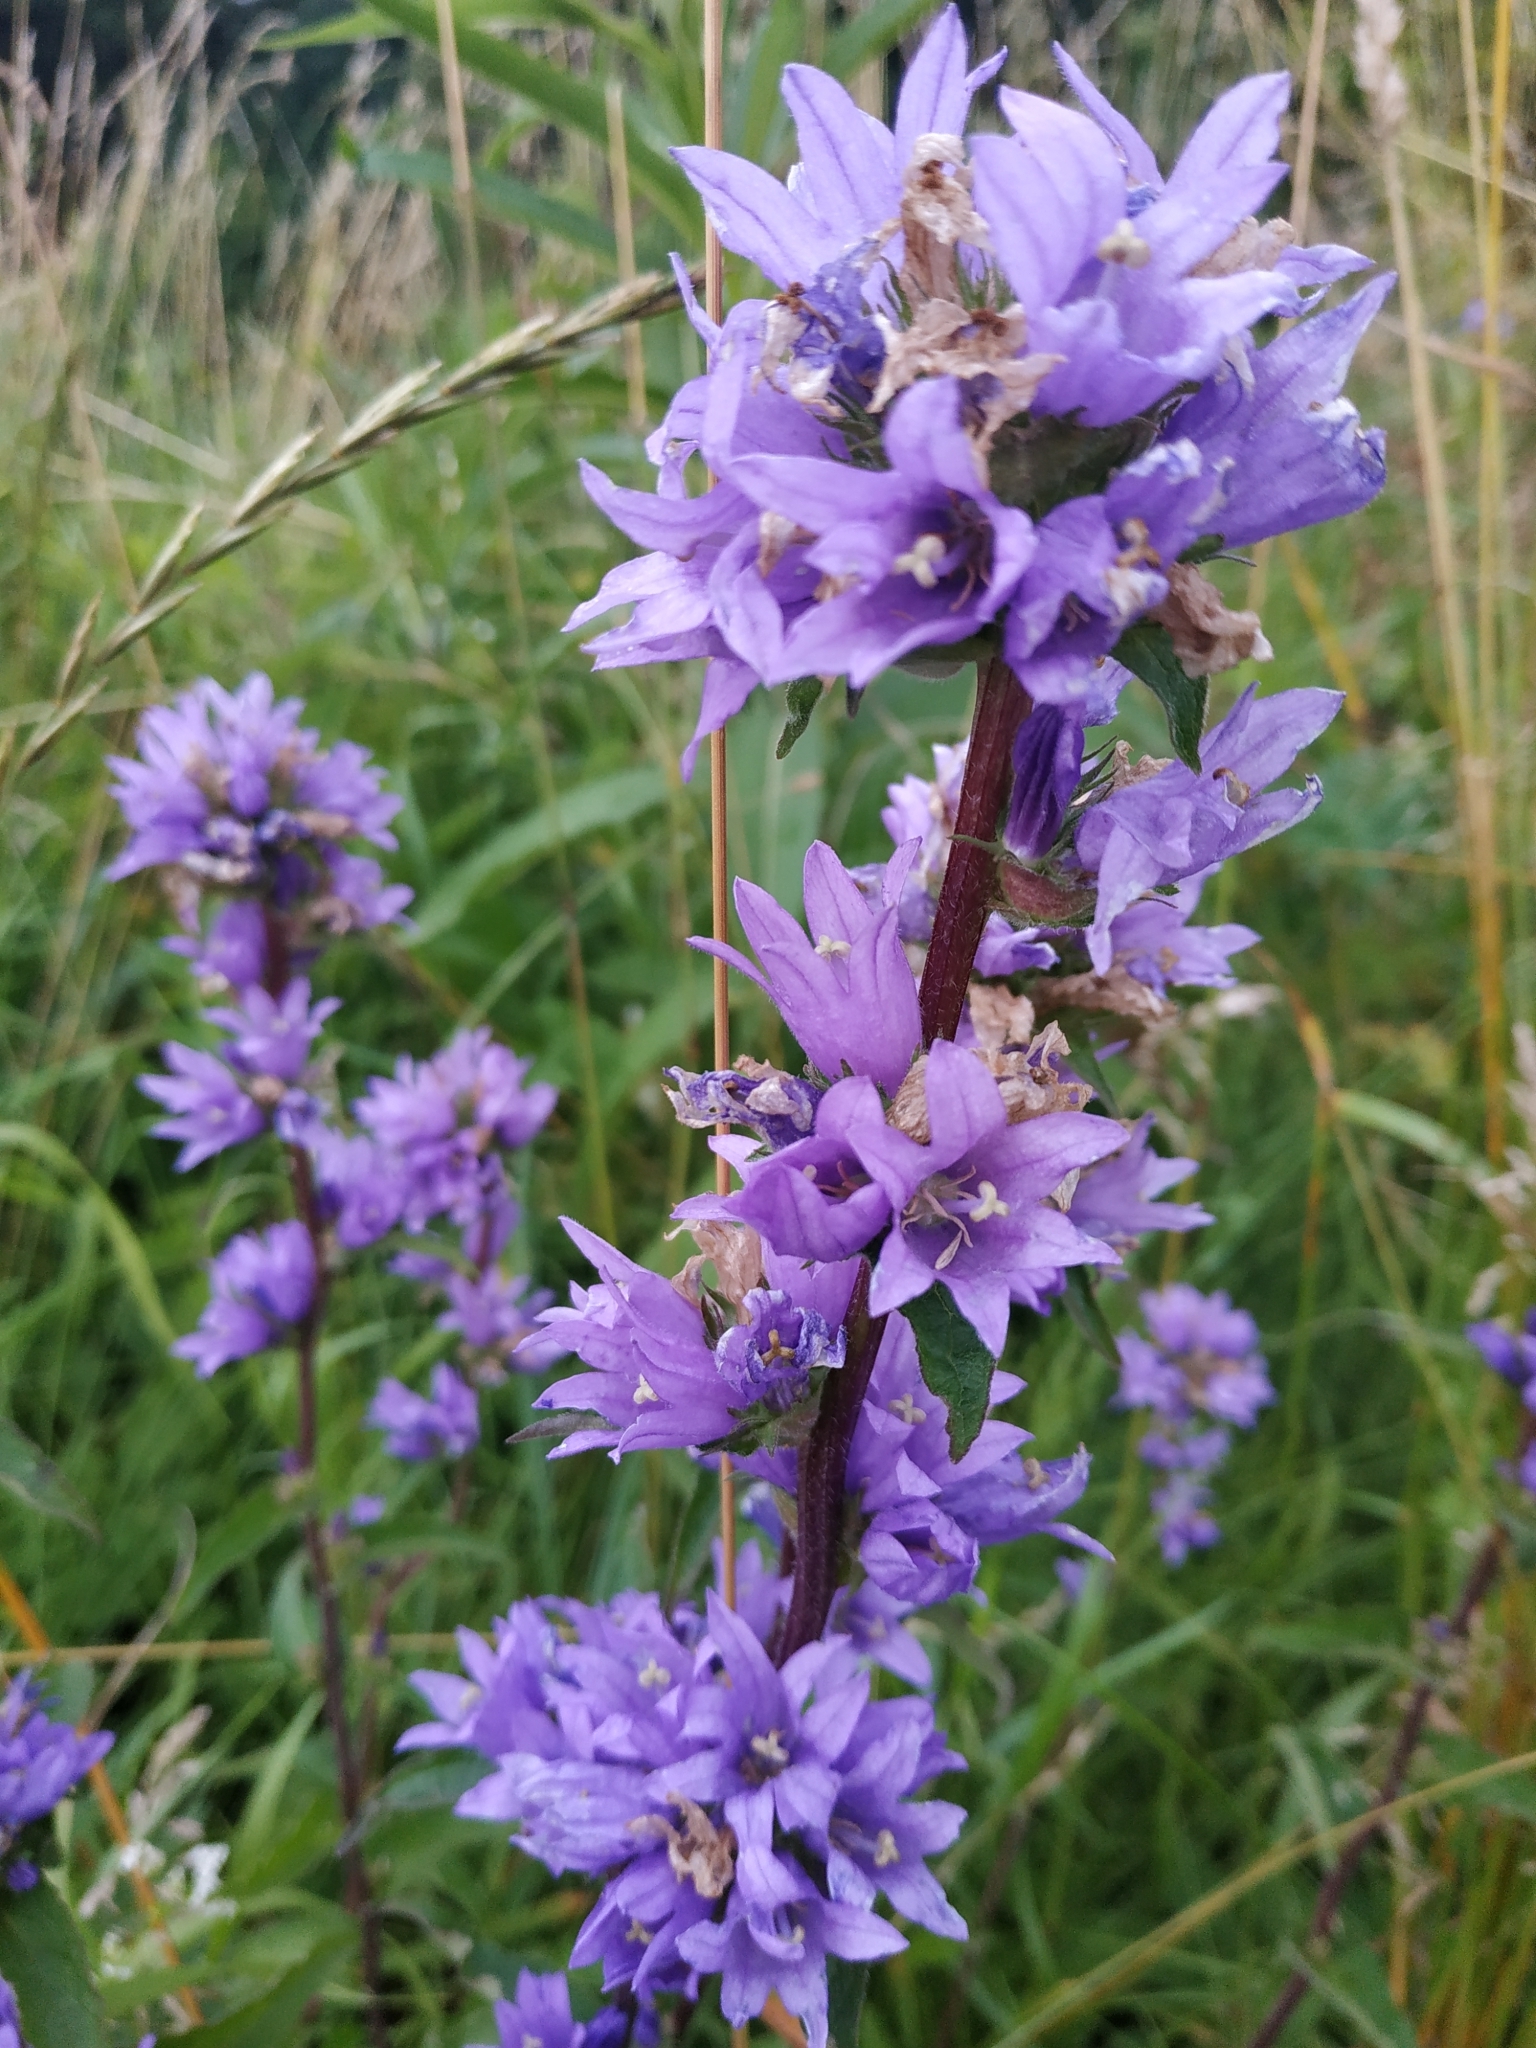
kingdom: Plantae
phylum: Tracheophyta
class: Magnoliopsida
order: Asterales
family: Campanulaceae
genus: Campanula
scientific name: Campanula glomerata
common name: Clustered bellflower
